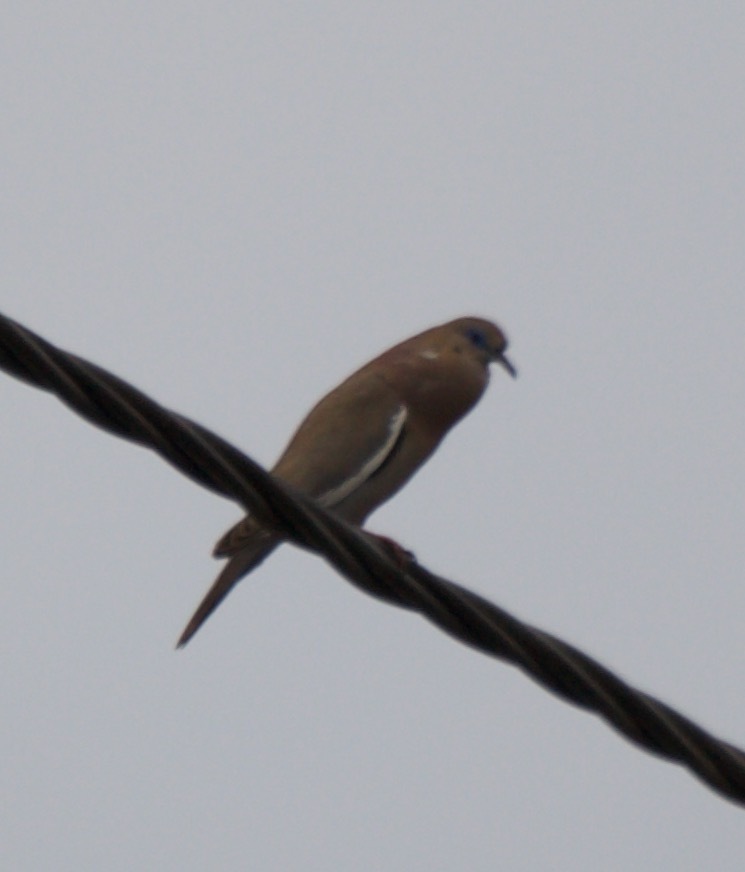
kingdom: Animalia
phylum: Chordata
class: Aves
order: Columbiformes
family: Columbidae
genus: Zenaida
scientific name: Zenaida meloda
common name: West peruvian dove
